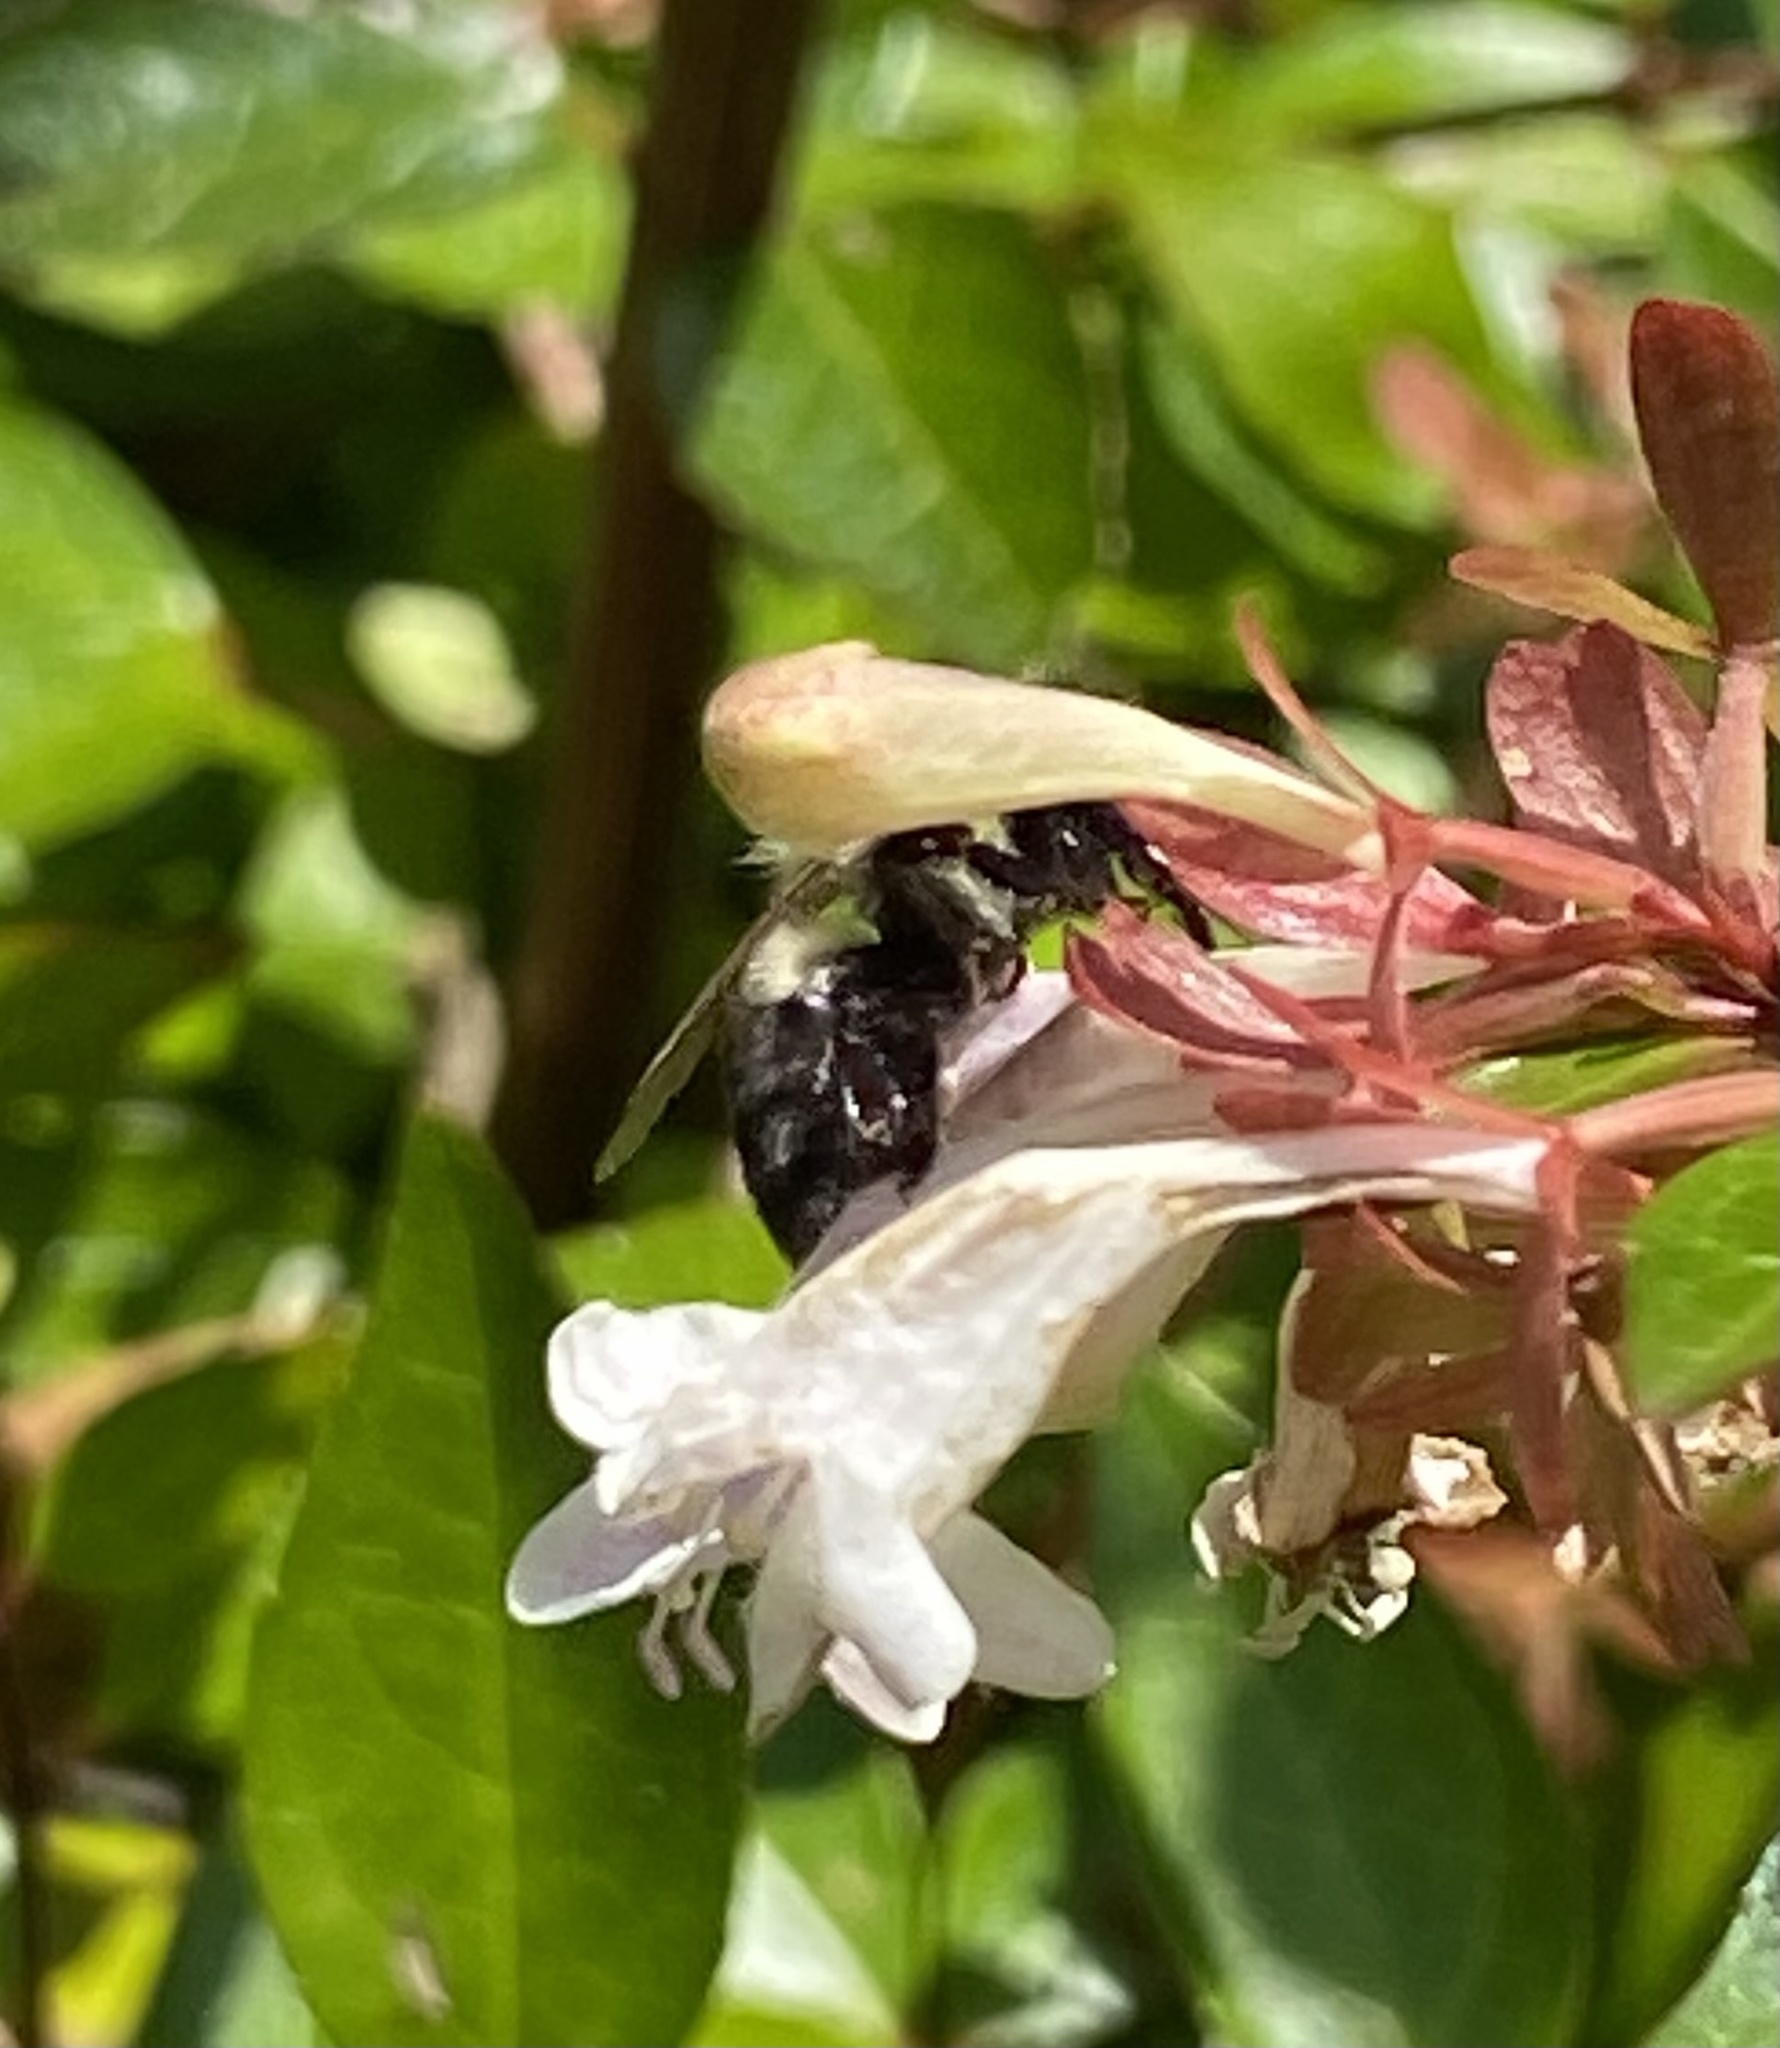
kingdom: Animalia
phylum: Arthropoda
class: Insecta
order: Hymenoptera
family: Apidae
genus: Bombus
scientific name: Bombus impatiens
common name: Common eastern bumble bee
